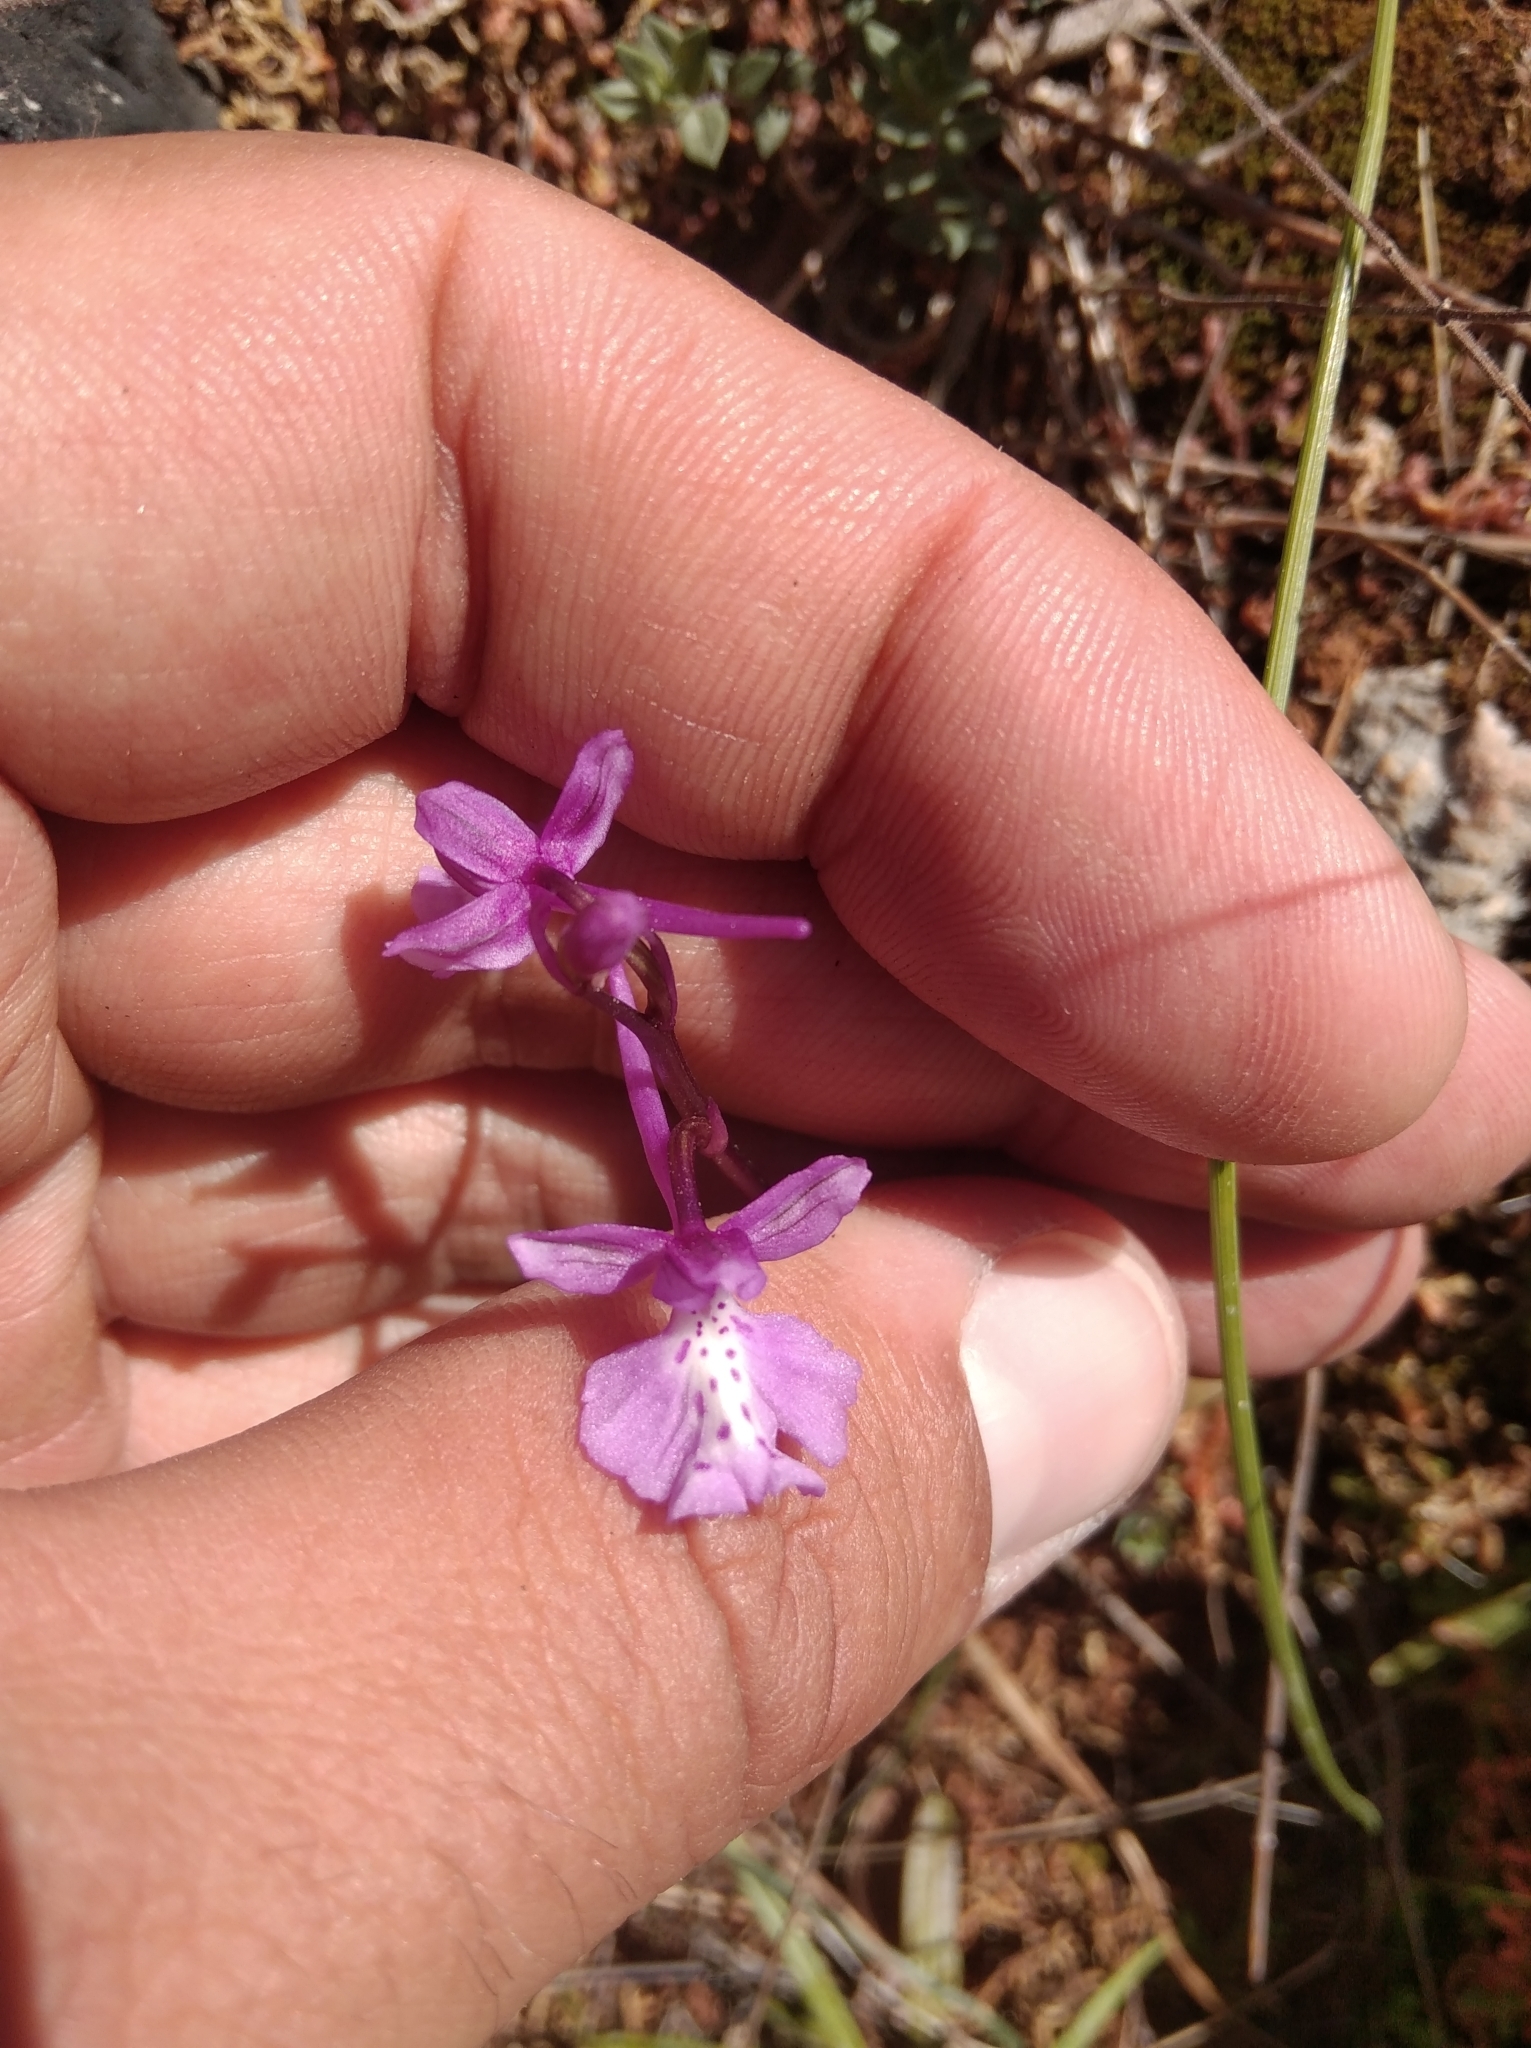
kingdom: Plantae
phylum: Tracheophyta
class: Liliopsida
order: Asparagales
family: Orchidaceae
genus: Orchis
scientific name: Orchis anatolica
